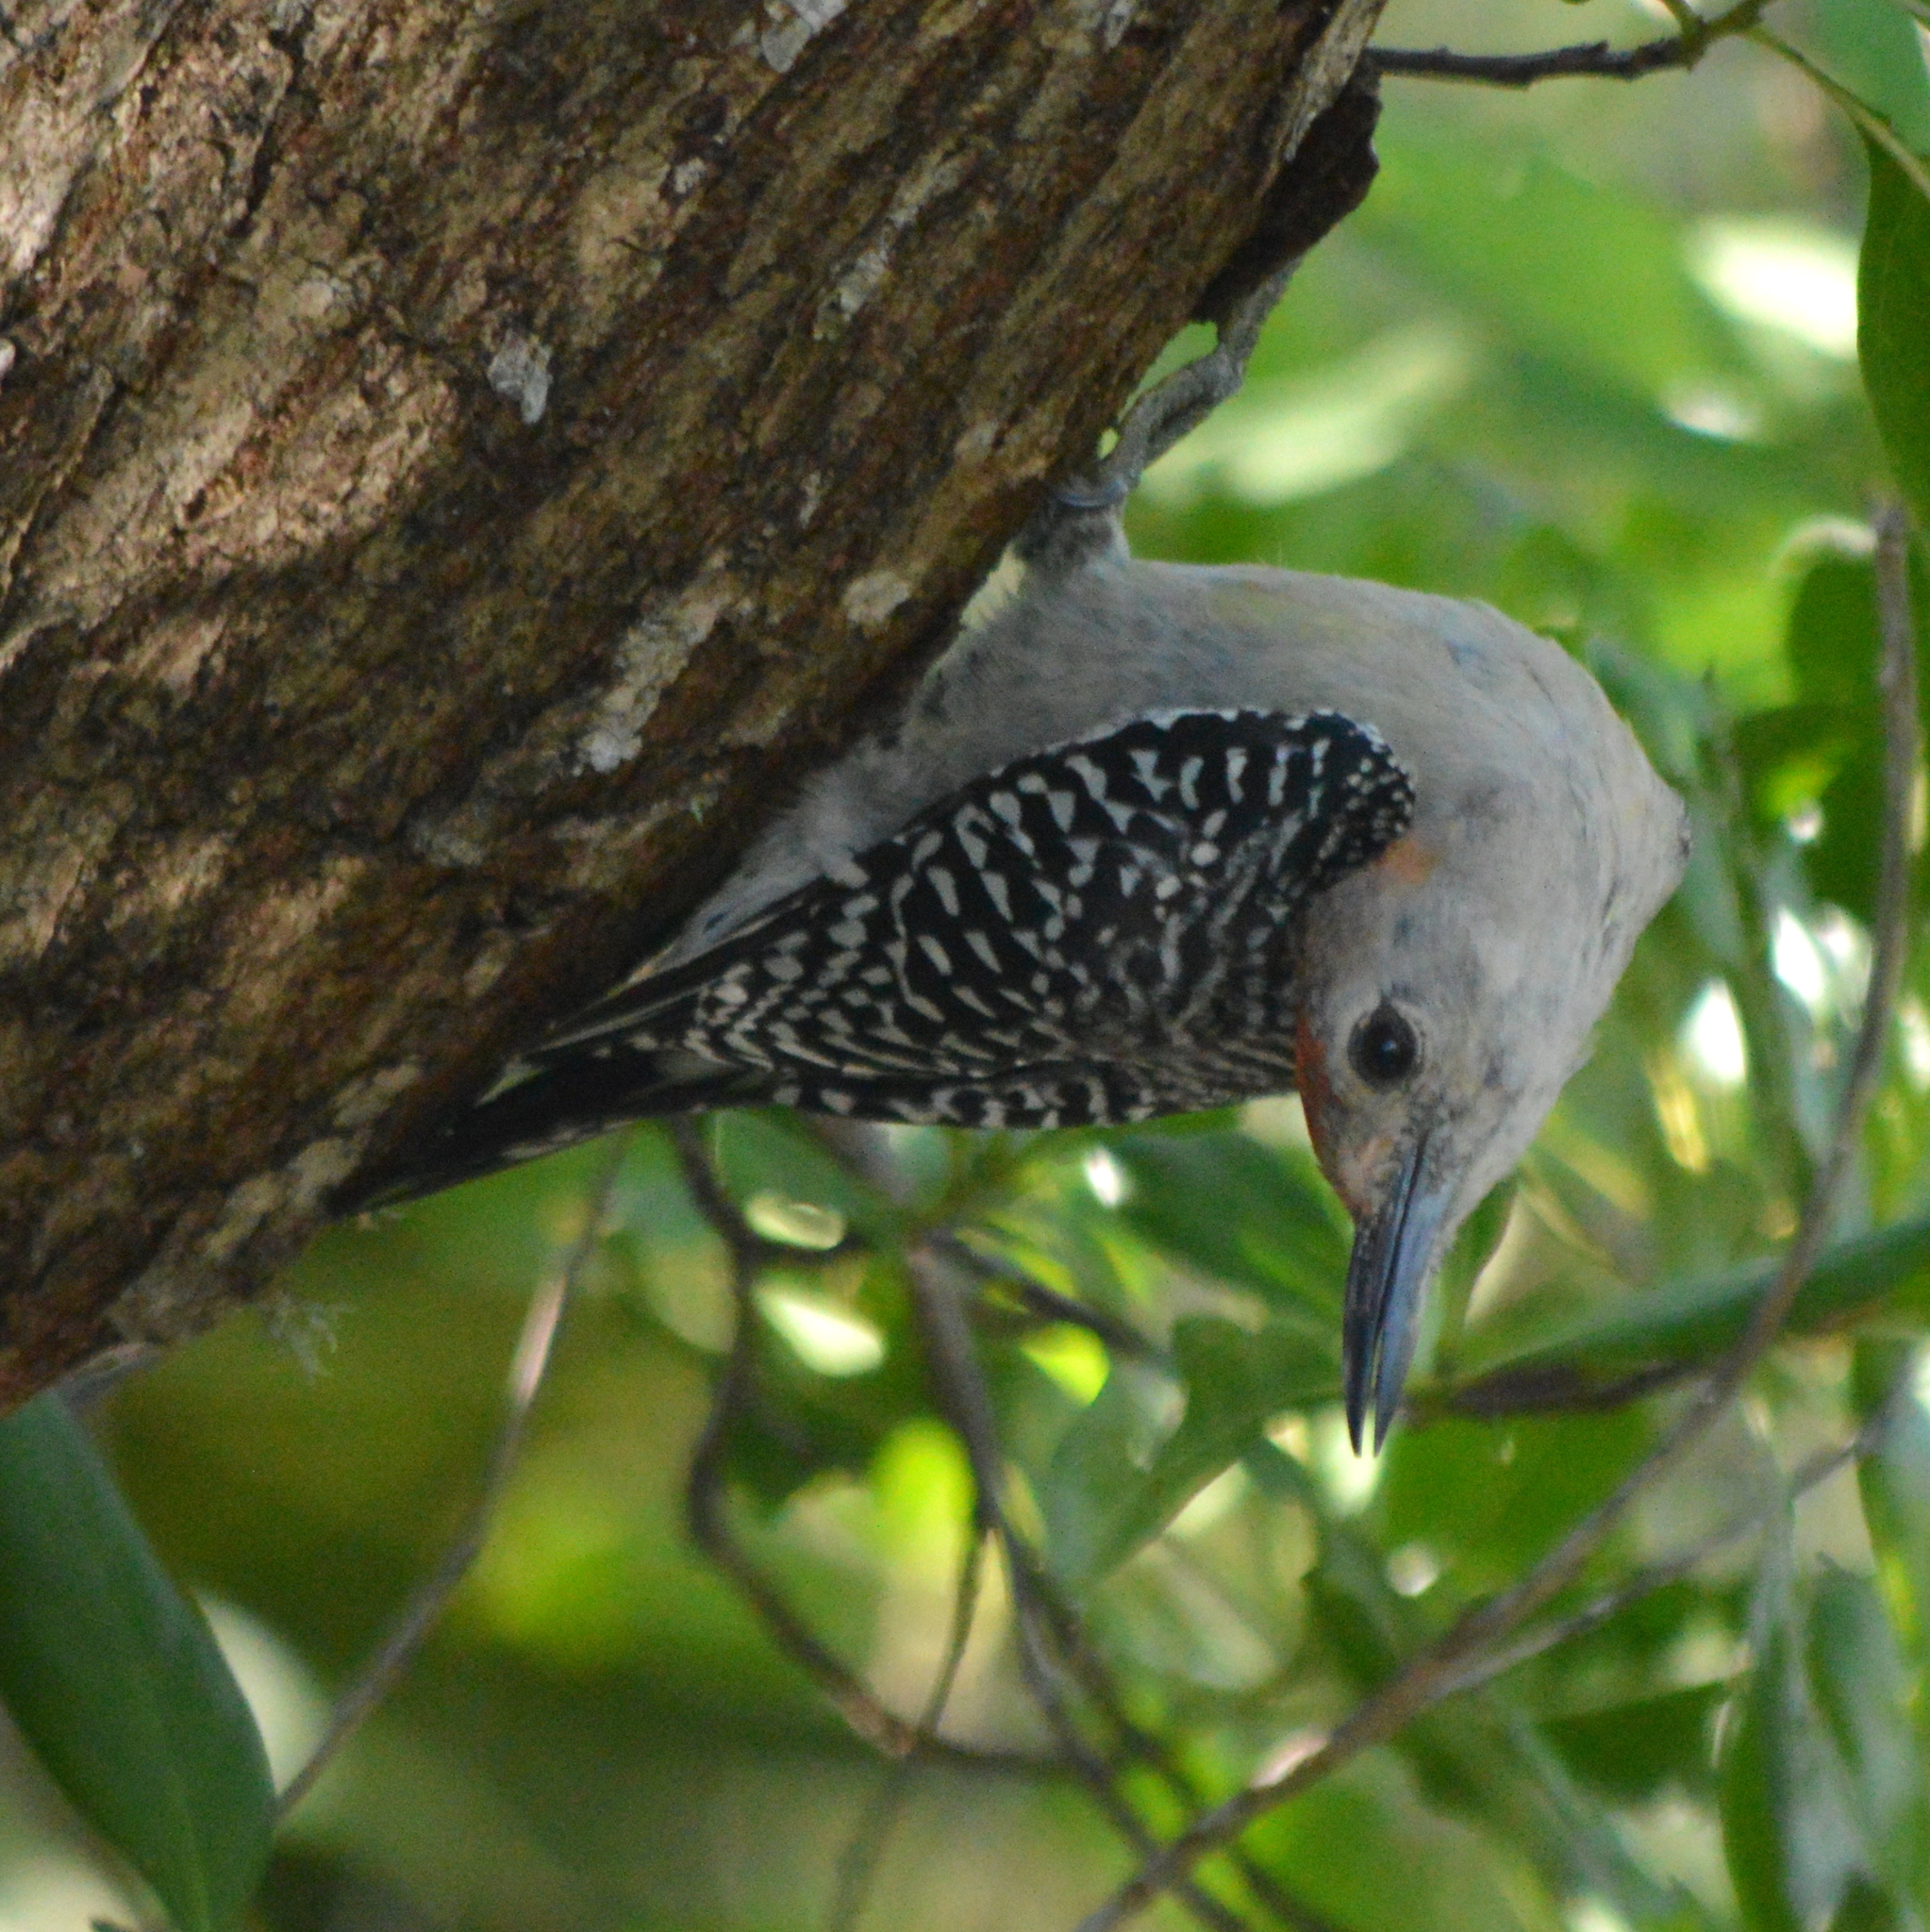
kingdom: Animalia
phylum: Chordata
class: Aves
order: Piciformes
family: Picidae
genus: Melanerpes
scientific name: Melanerpes carolinus
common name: Red-bellied woodpecker
